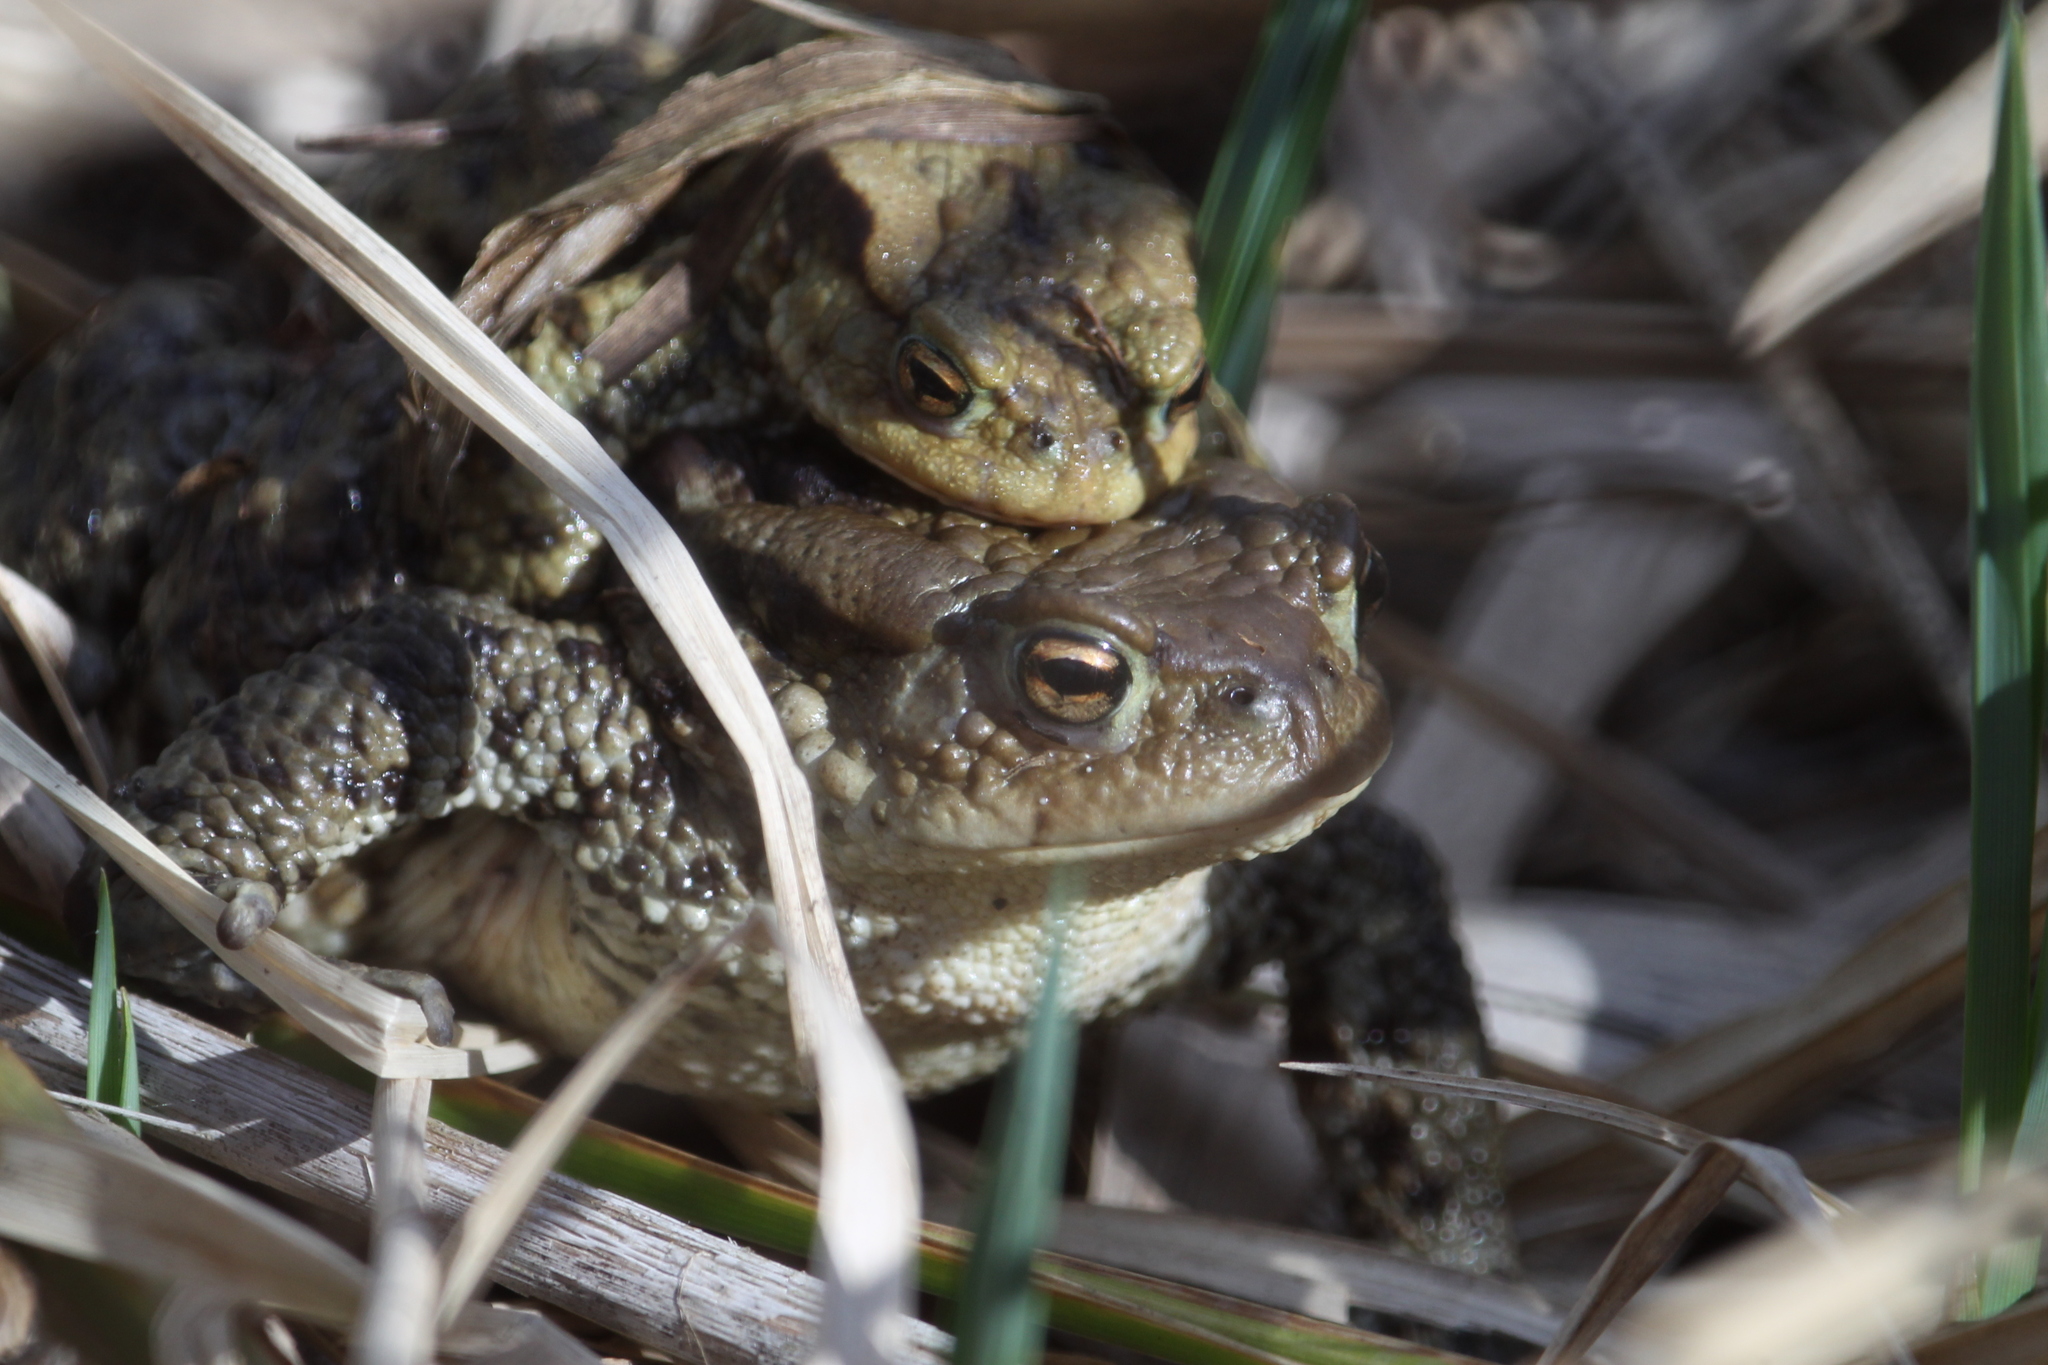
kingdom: Animalia
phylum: Chordata
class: Amphibia
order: Anura
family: Bufonidae
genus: Bufo
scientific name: Bufo bufo
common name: Common toad
